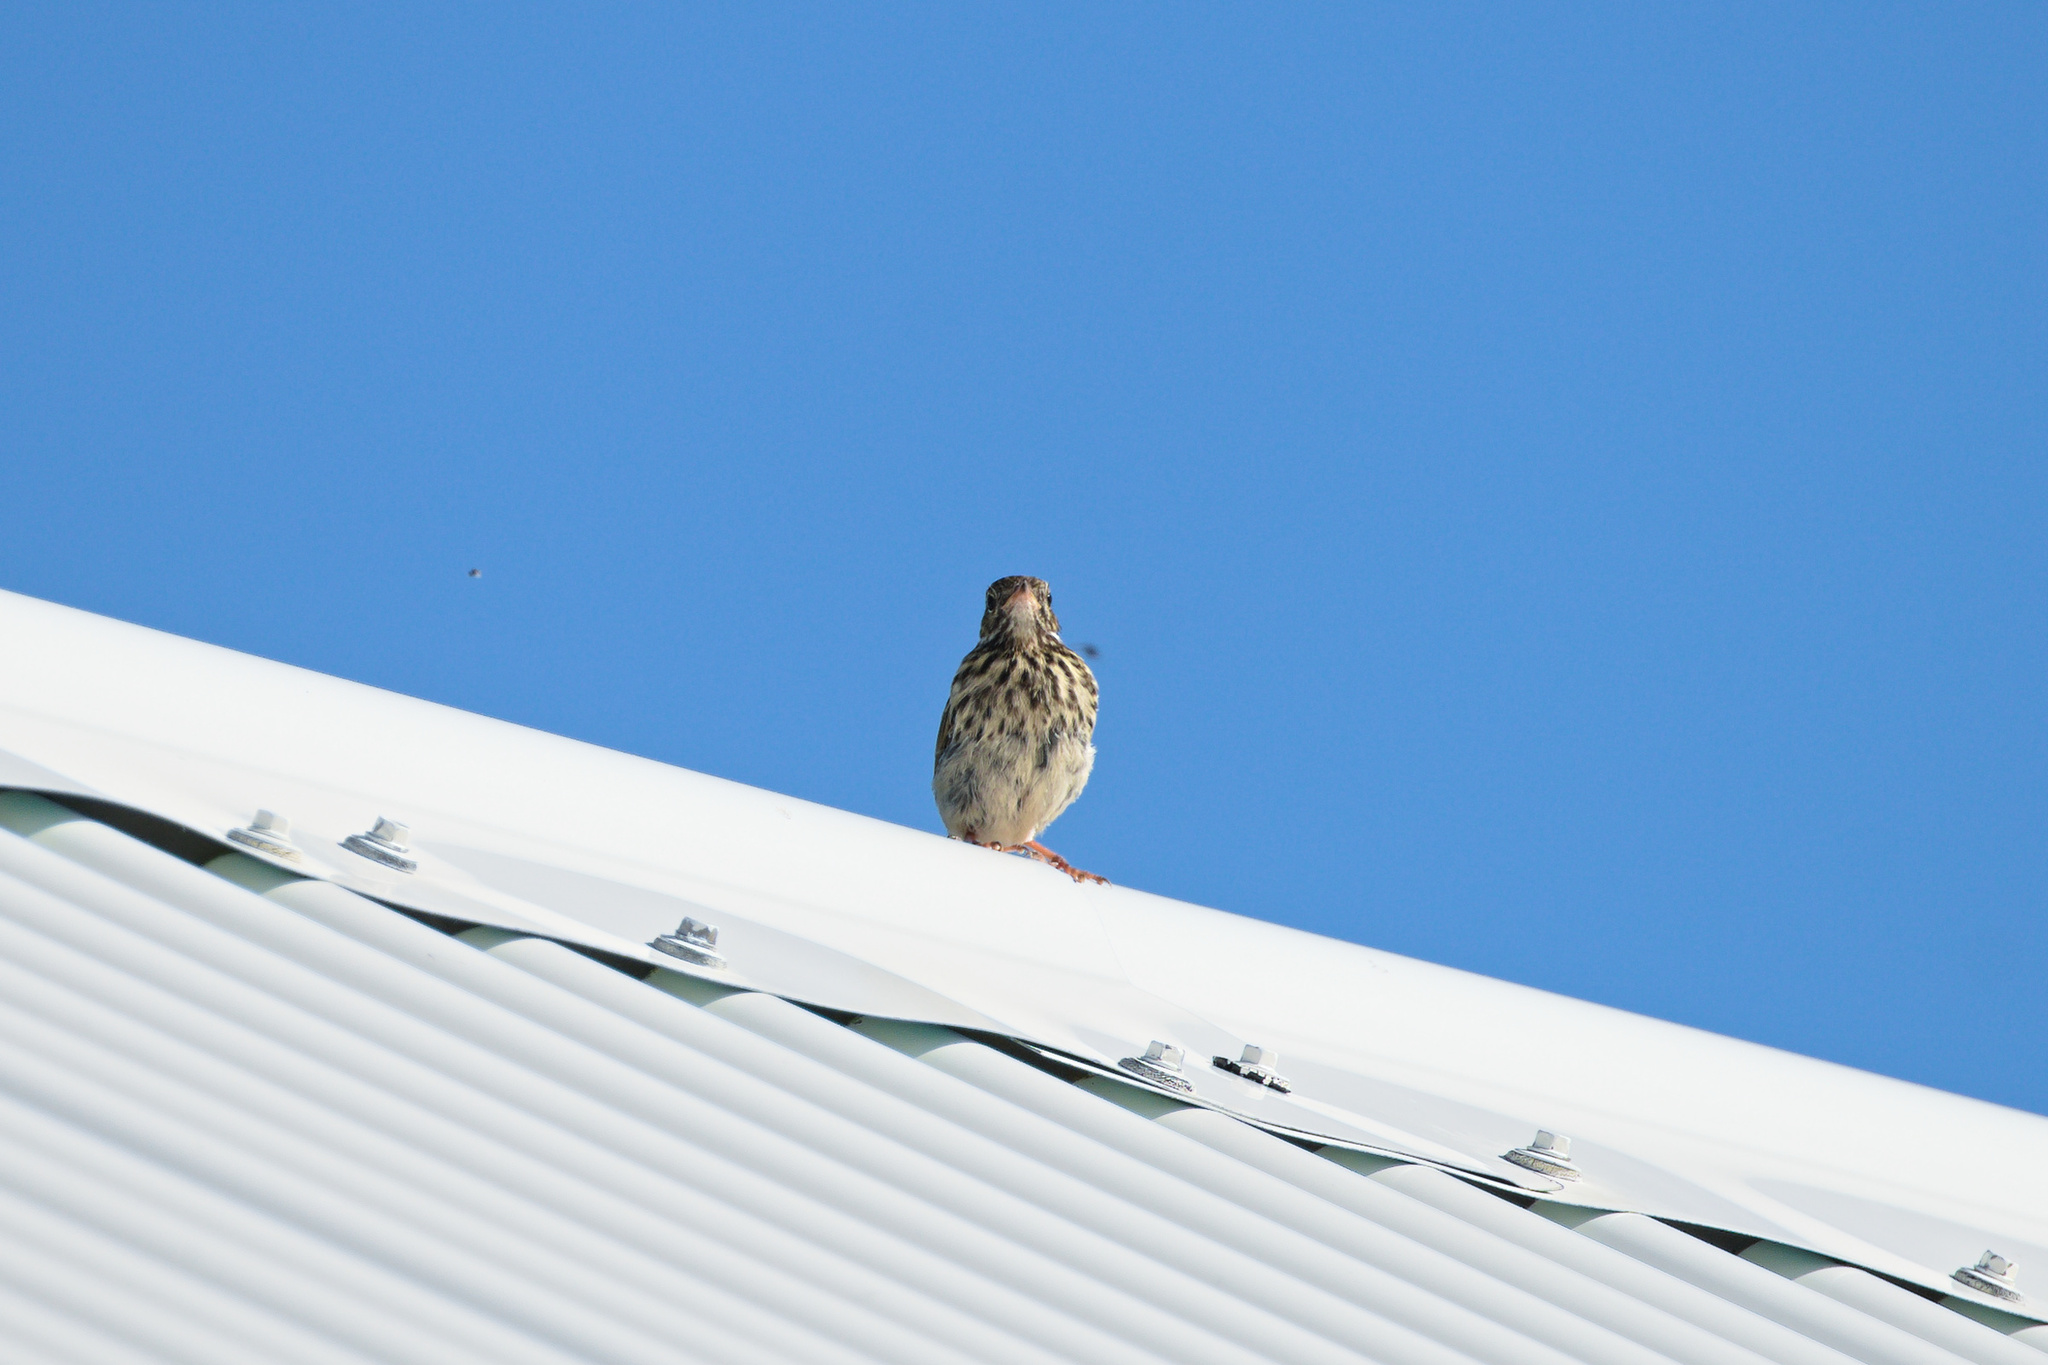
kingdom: Animalia
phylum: Chordata
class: Aves
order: Passeriformes
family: Motacillidae
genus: Anthus
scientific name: Anthus pratensis
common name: Meadow pipit
